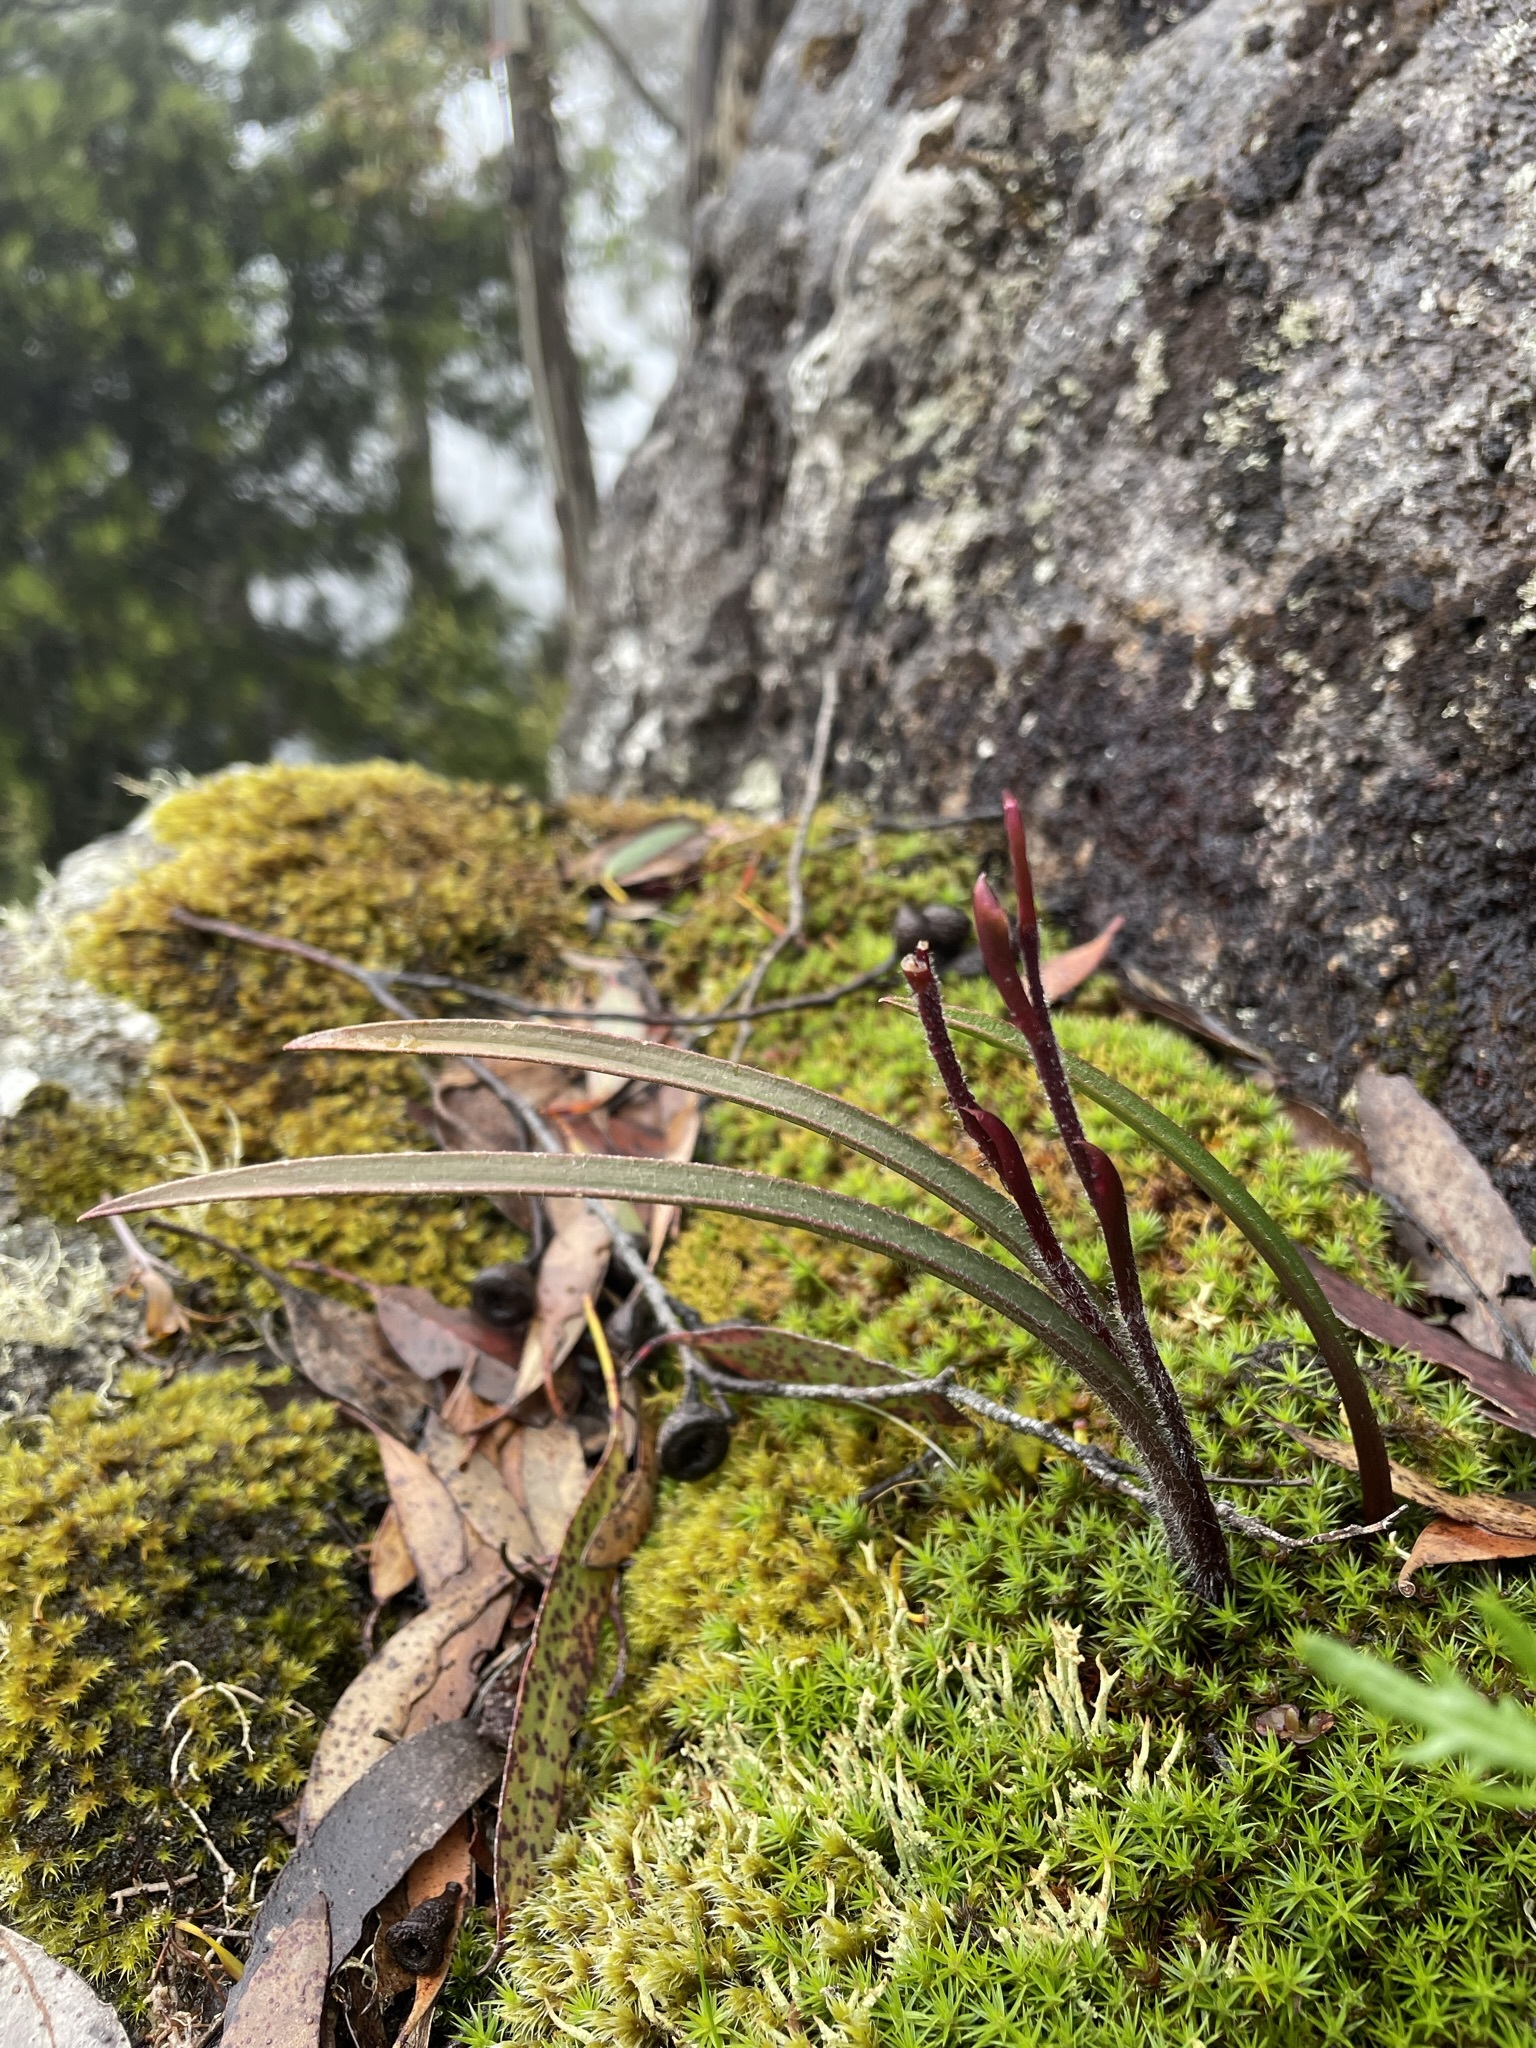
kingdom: Plantae
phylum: Tracheophyta
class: Liliopsida
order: Asparagales
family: Orchidaceae
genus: Caladenia
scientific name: Caladenia alpina
